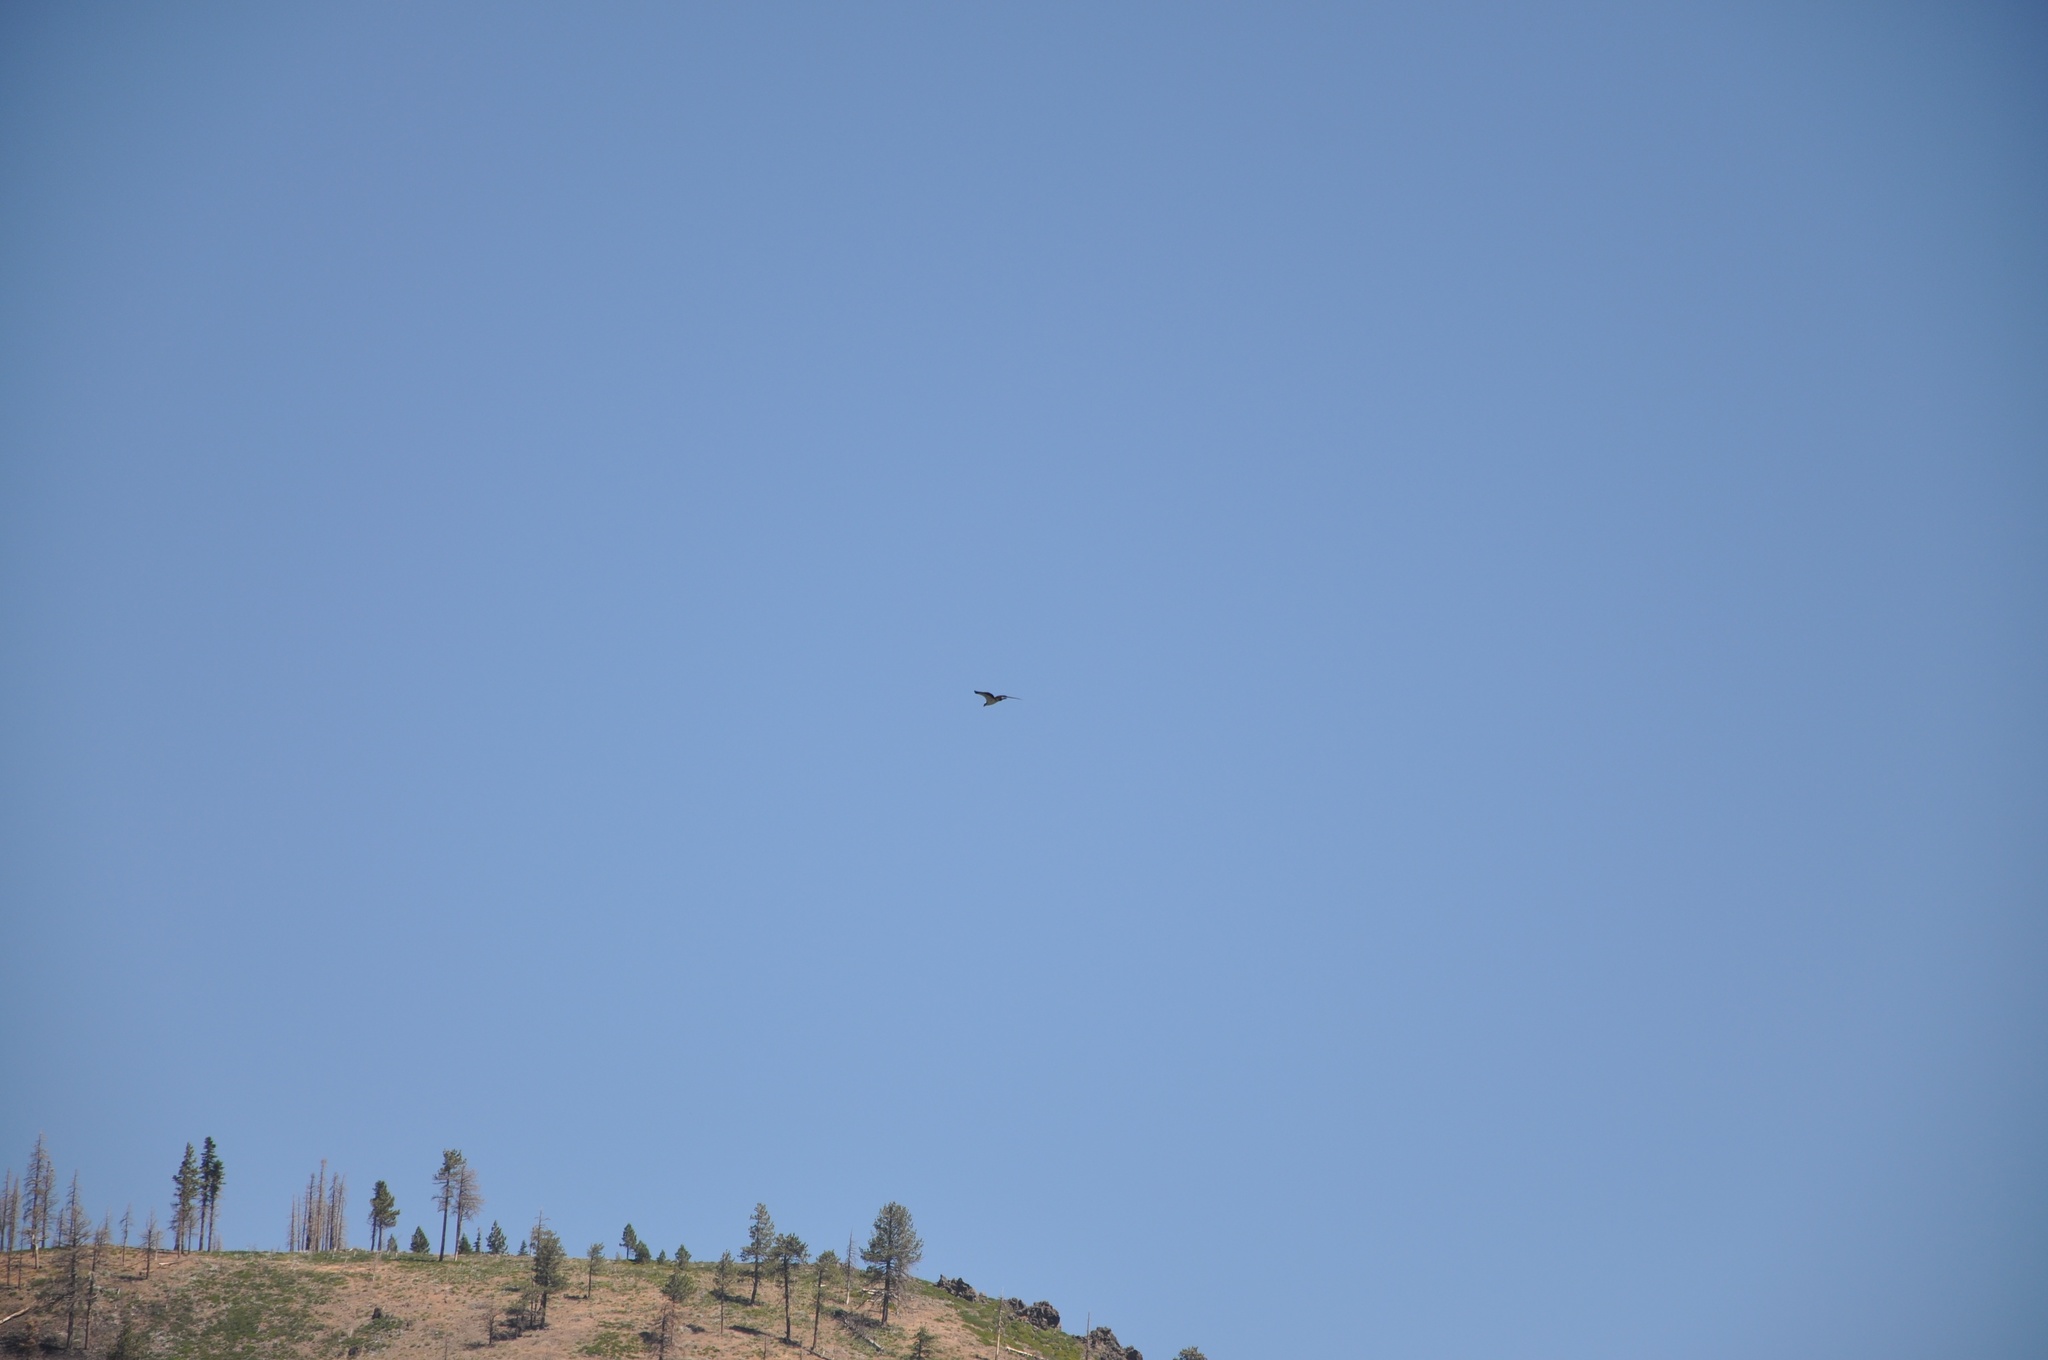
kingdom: Animalia
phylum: Chordata
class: Aves
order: Accipitriformes
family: Pandionidae
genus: Pandion
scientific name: Pandion haliaetus
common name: Osprey
